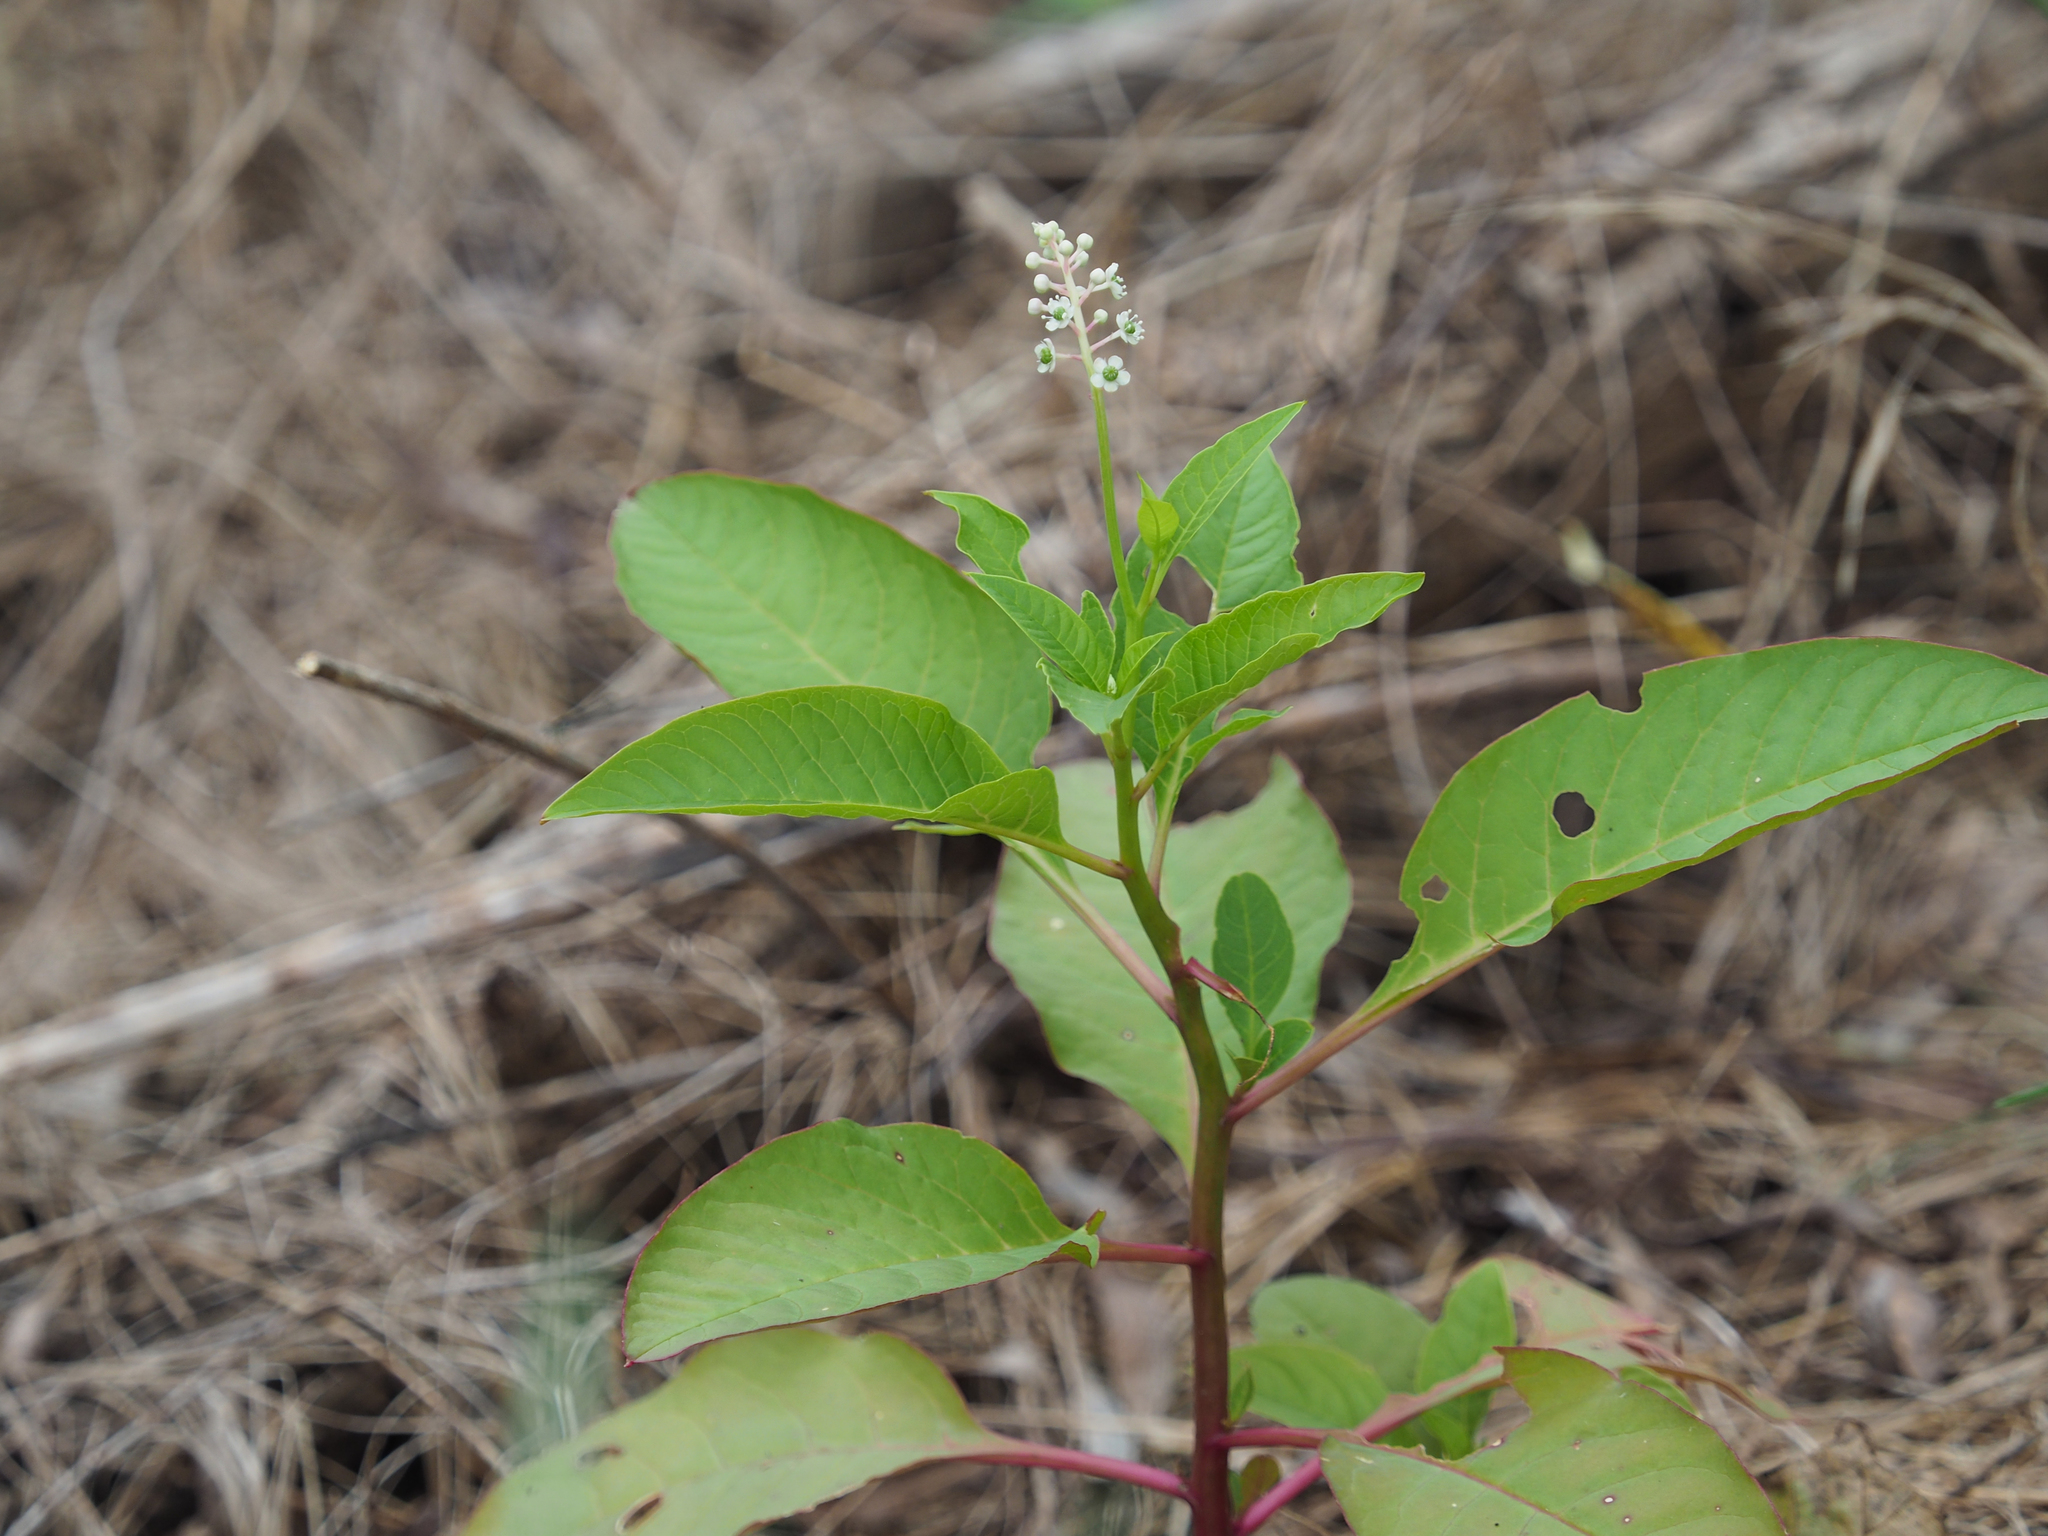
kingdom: Plantae
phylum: Tracheophyta
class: Magnoliopsida
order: Caryophyllales
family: Phytolaccaceae
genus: Phytolacca
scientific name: Phytolacca americana
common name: American pokeweed
